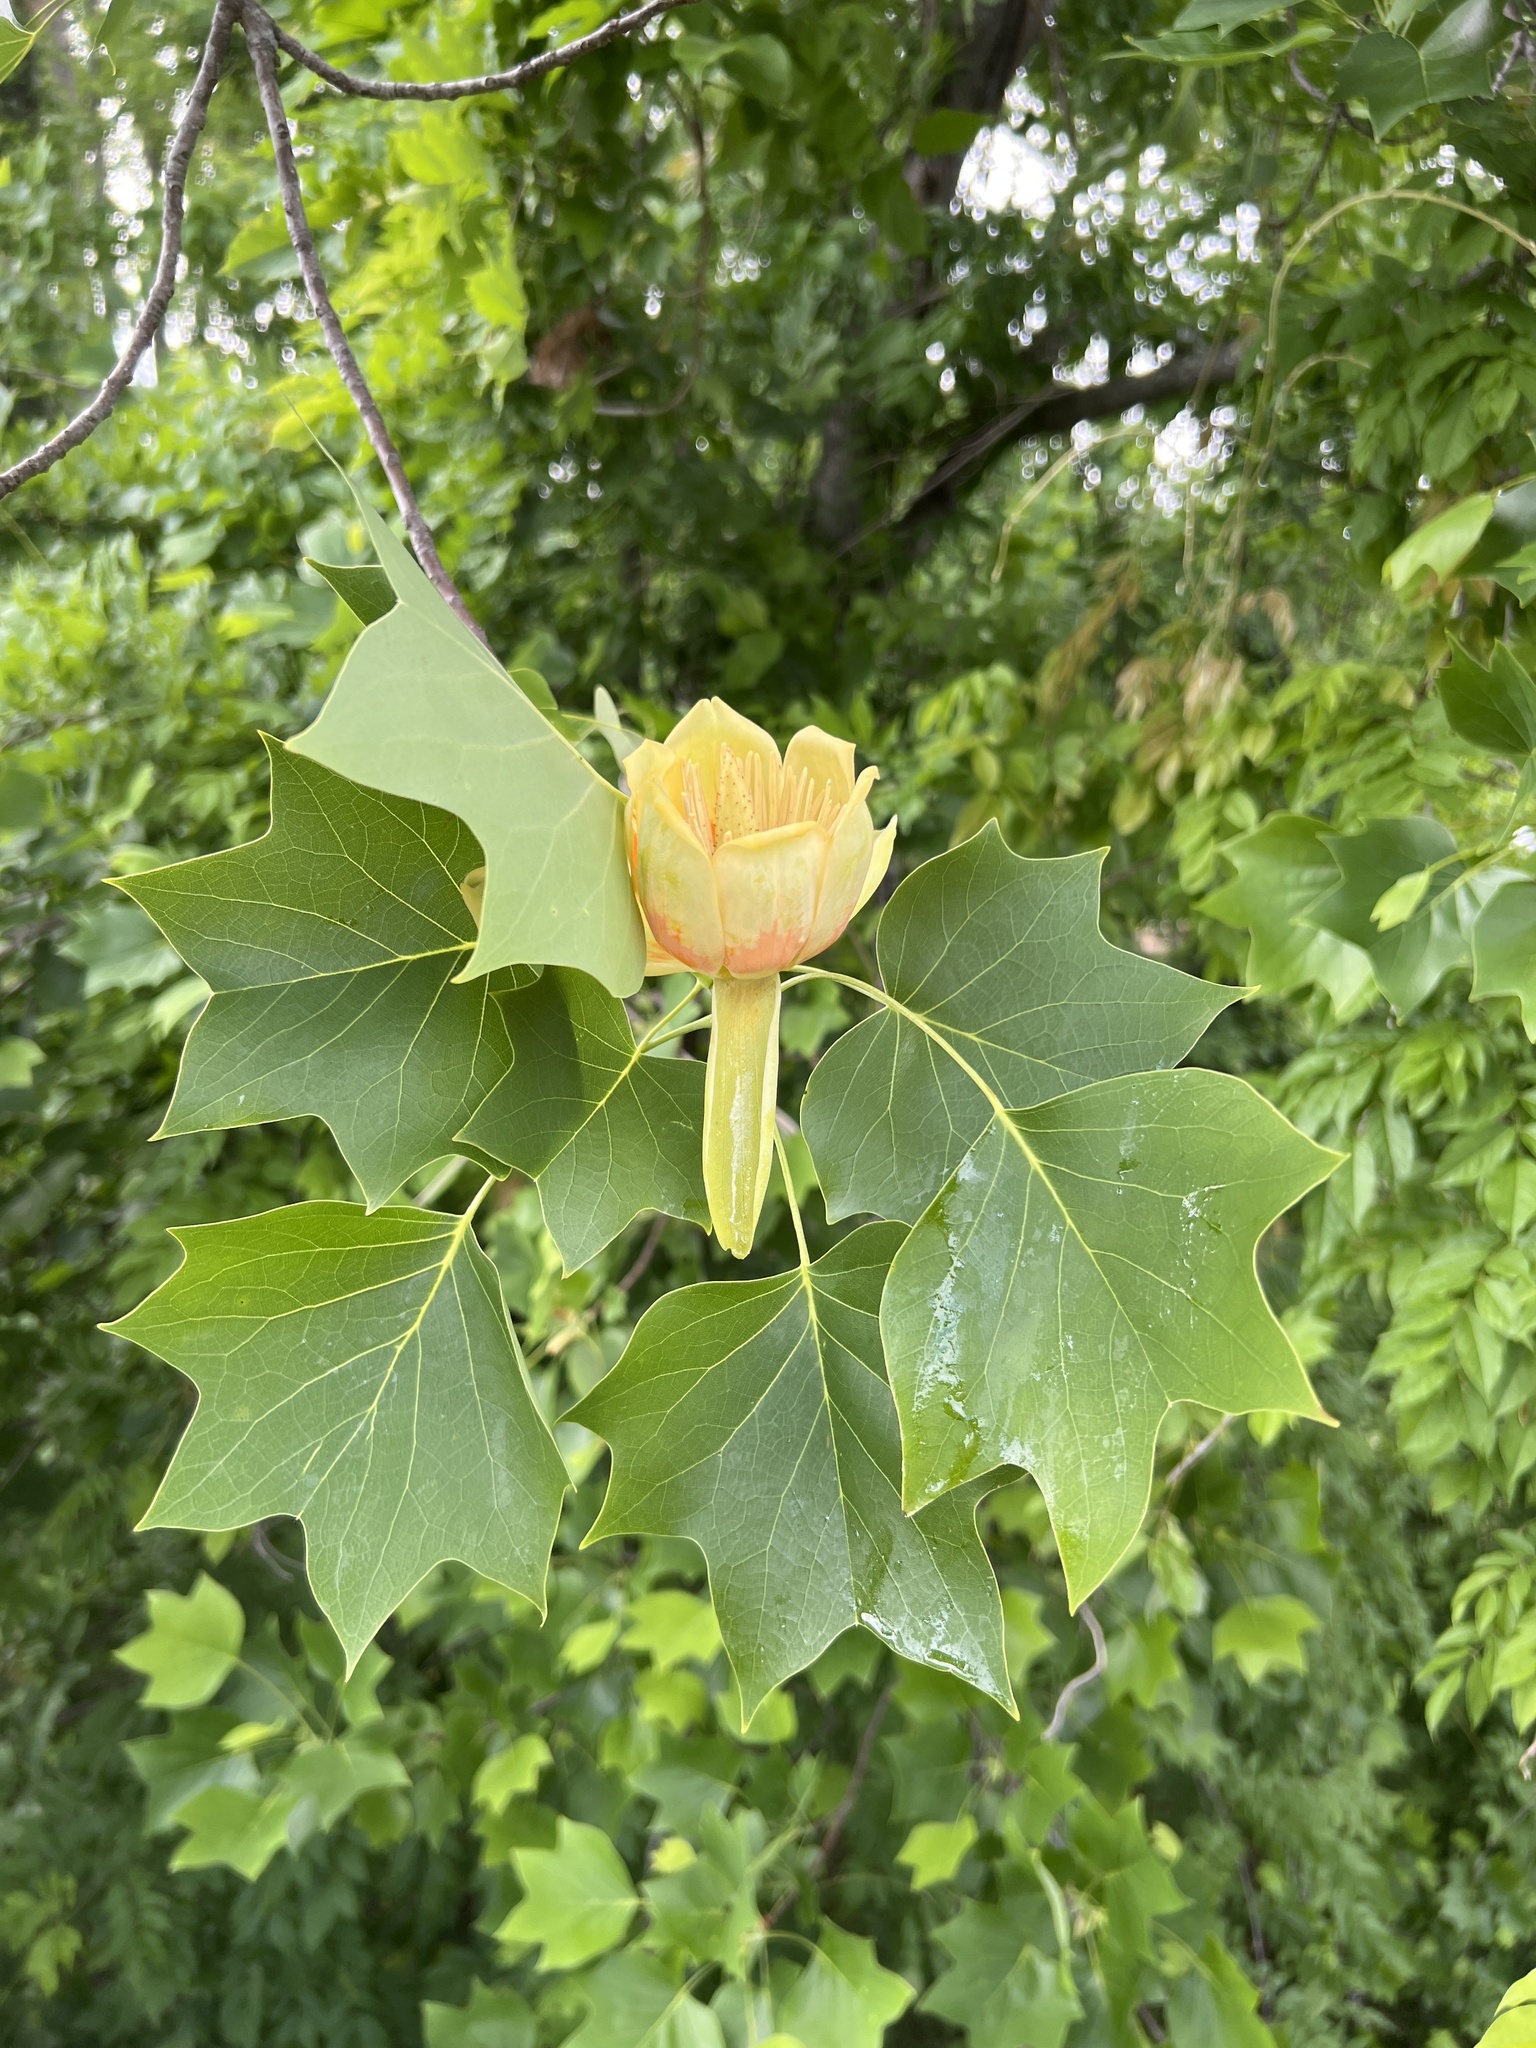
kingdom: Plantae
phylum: Tracheophyta
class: Magnoliopsida
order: Magnoliales
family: Magnoliaceae
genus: Liriodendron
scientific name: Liriodendron tulipifera
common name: Tulip tree
